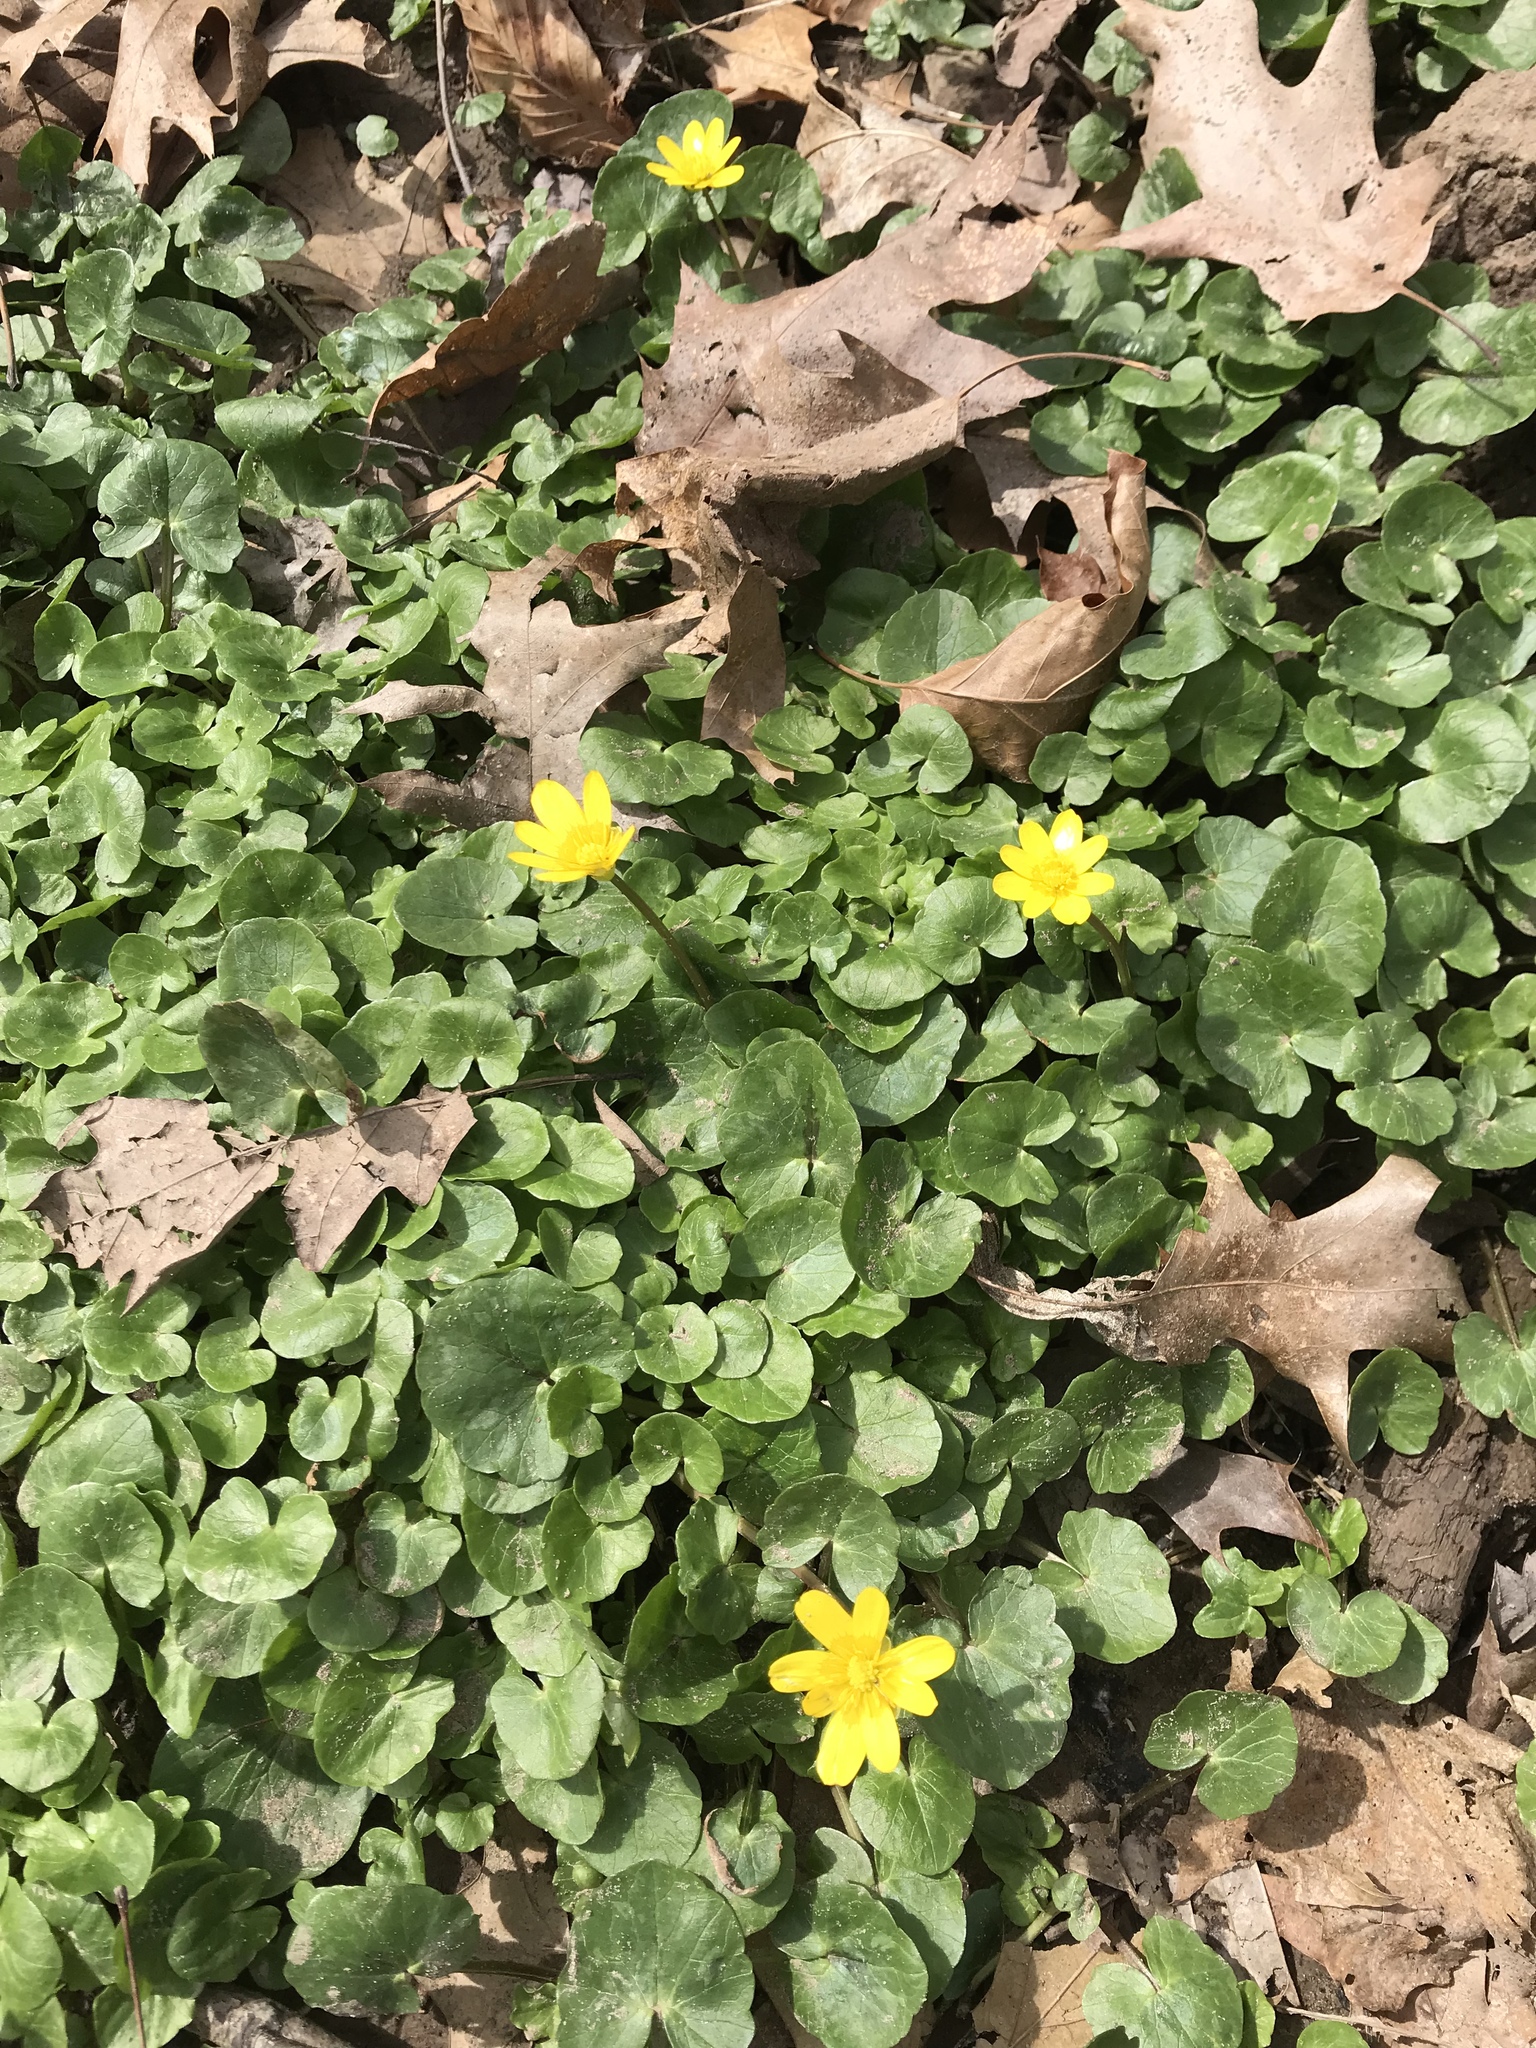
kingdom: Plantae
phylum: Tracheophyta
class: Magnoliopsida
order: Ranunculales
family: Ranunculaceae
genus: Ficaria
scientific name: Ficaria verna
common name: Lesser celandine
